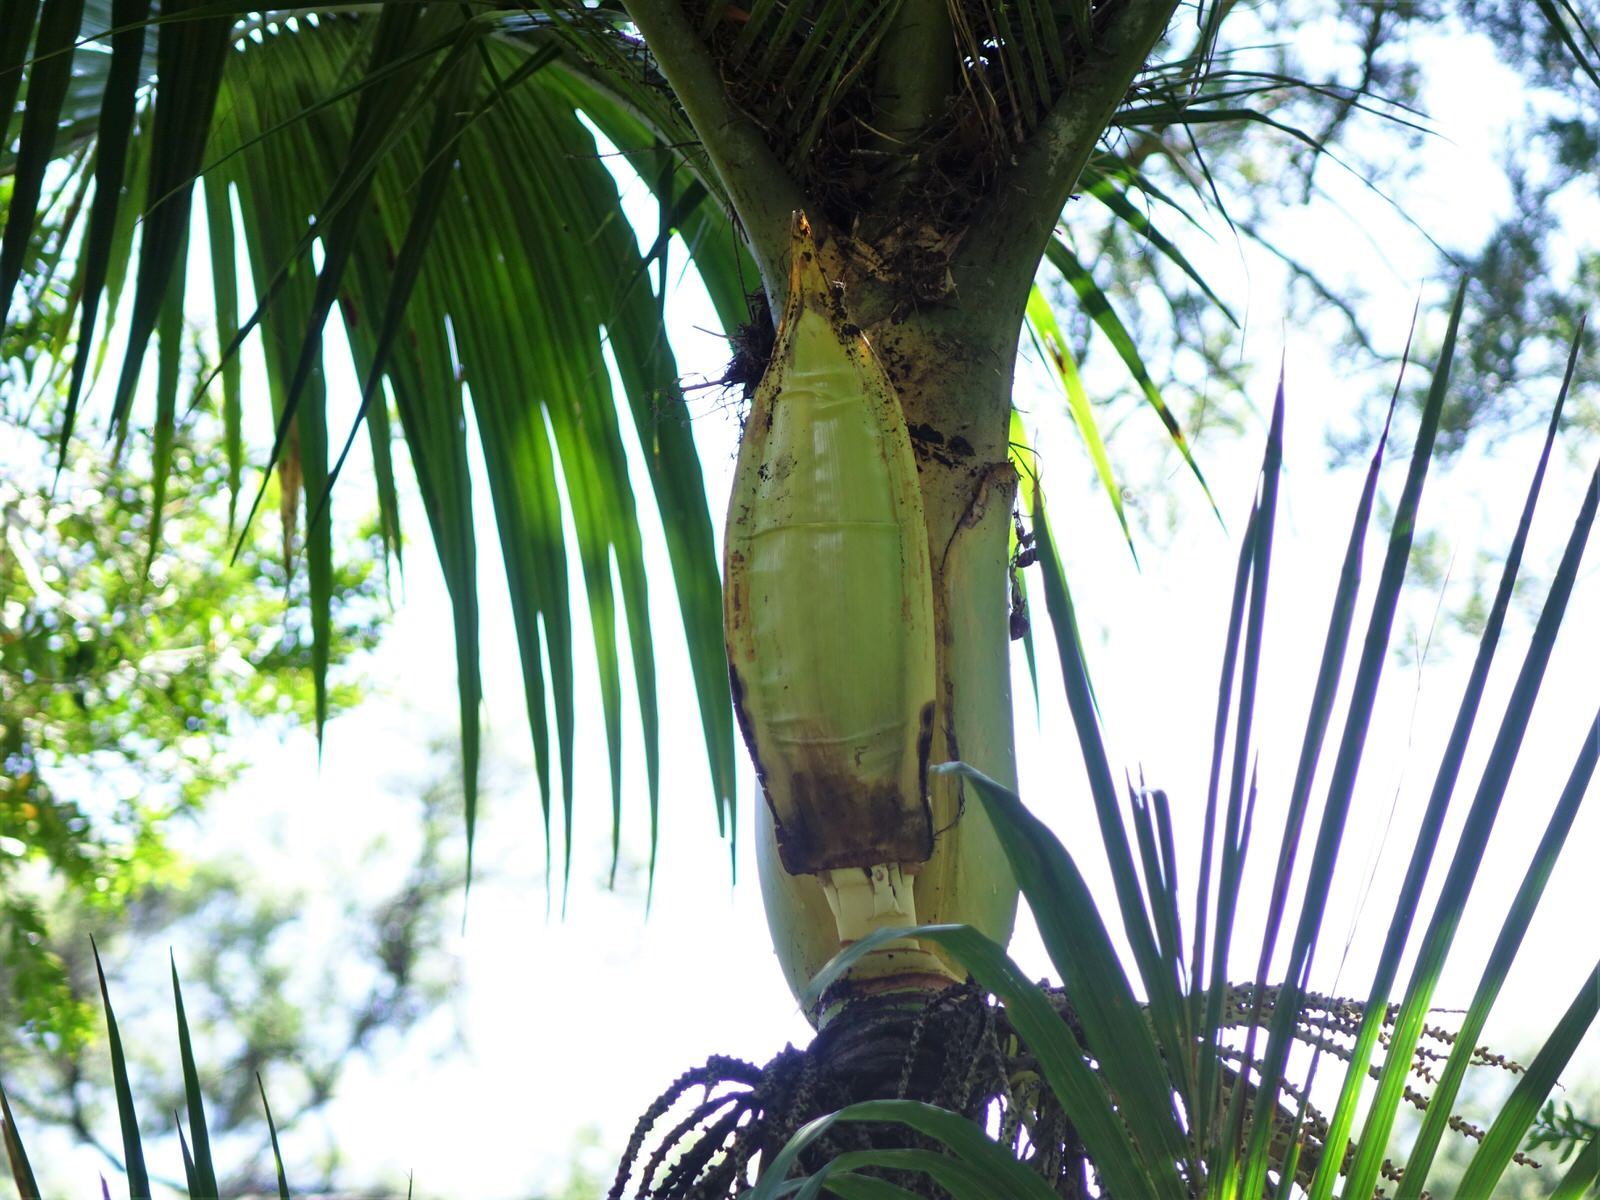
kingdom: Plantae
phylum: Tracheophyta
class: Liliopsida
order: Arecales
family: Arecaceae
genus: Rhopalostylis
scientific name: Rhopalostylis sapida
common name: Feather-duster palm
